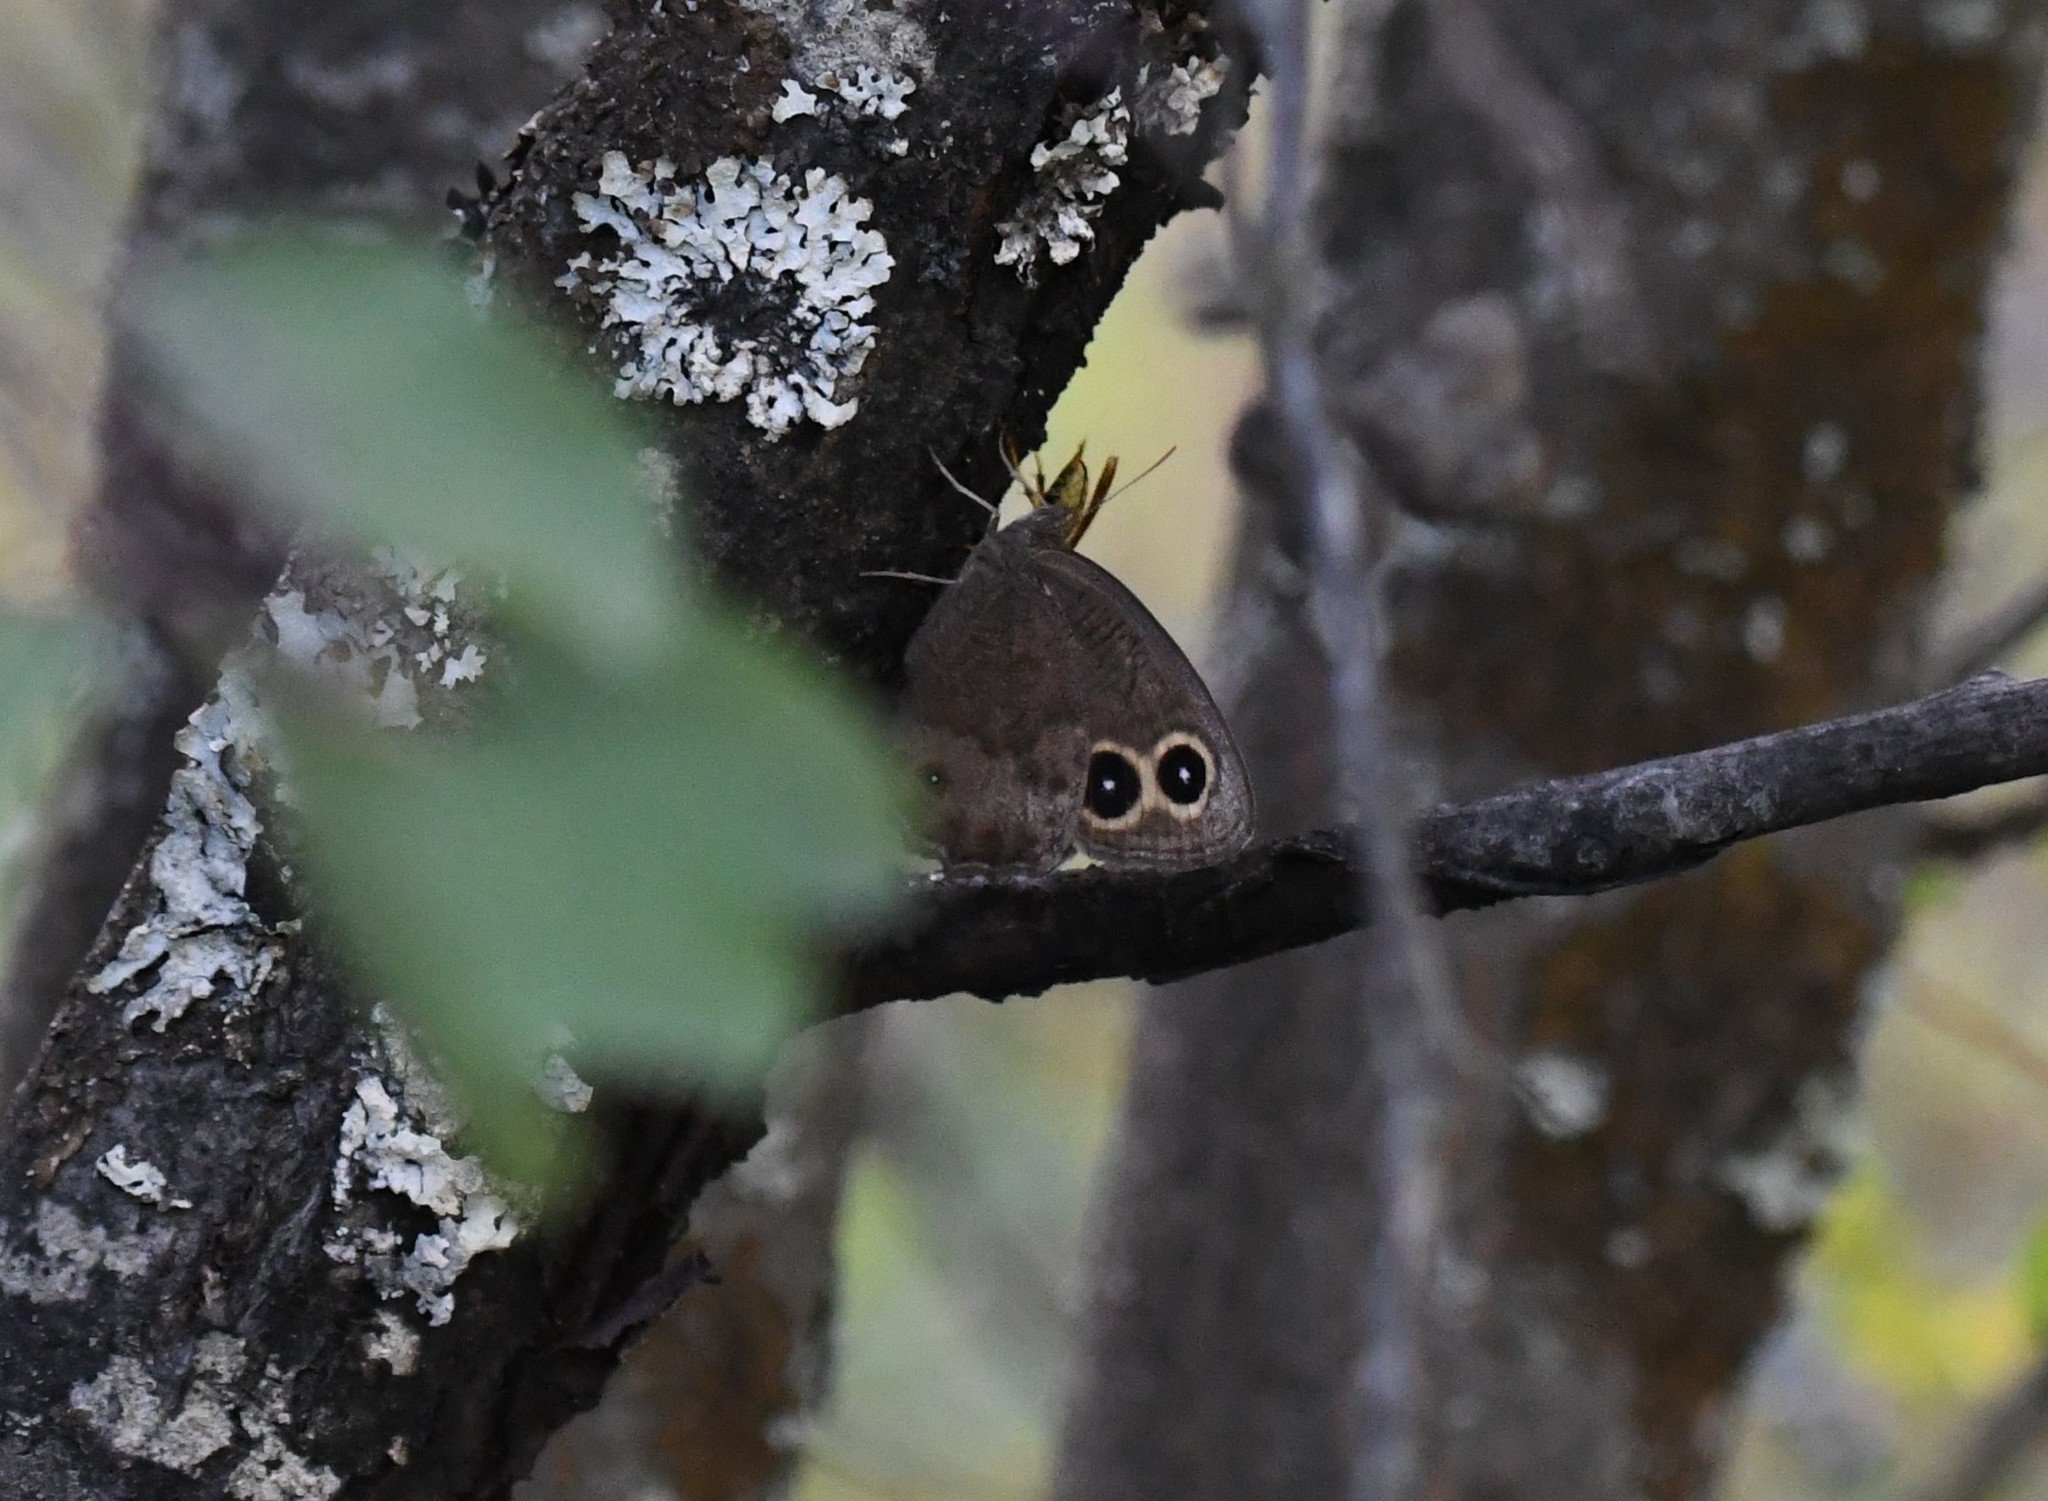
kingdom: Animalia
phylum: Arthropoda
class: Insecta
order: Lepidoptera
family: Nymphalidae
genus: Cercyonis
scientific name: Cercyonis pegala
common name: Common wood-nymph
